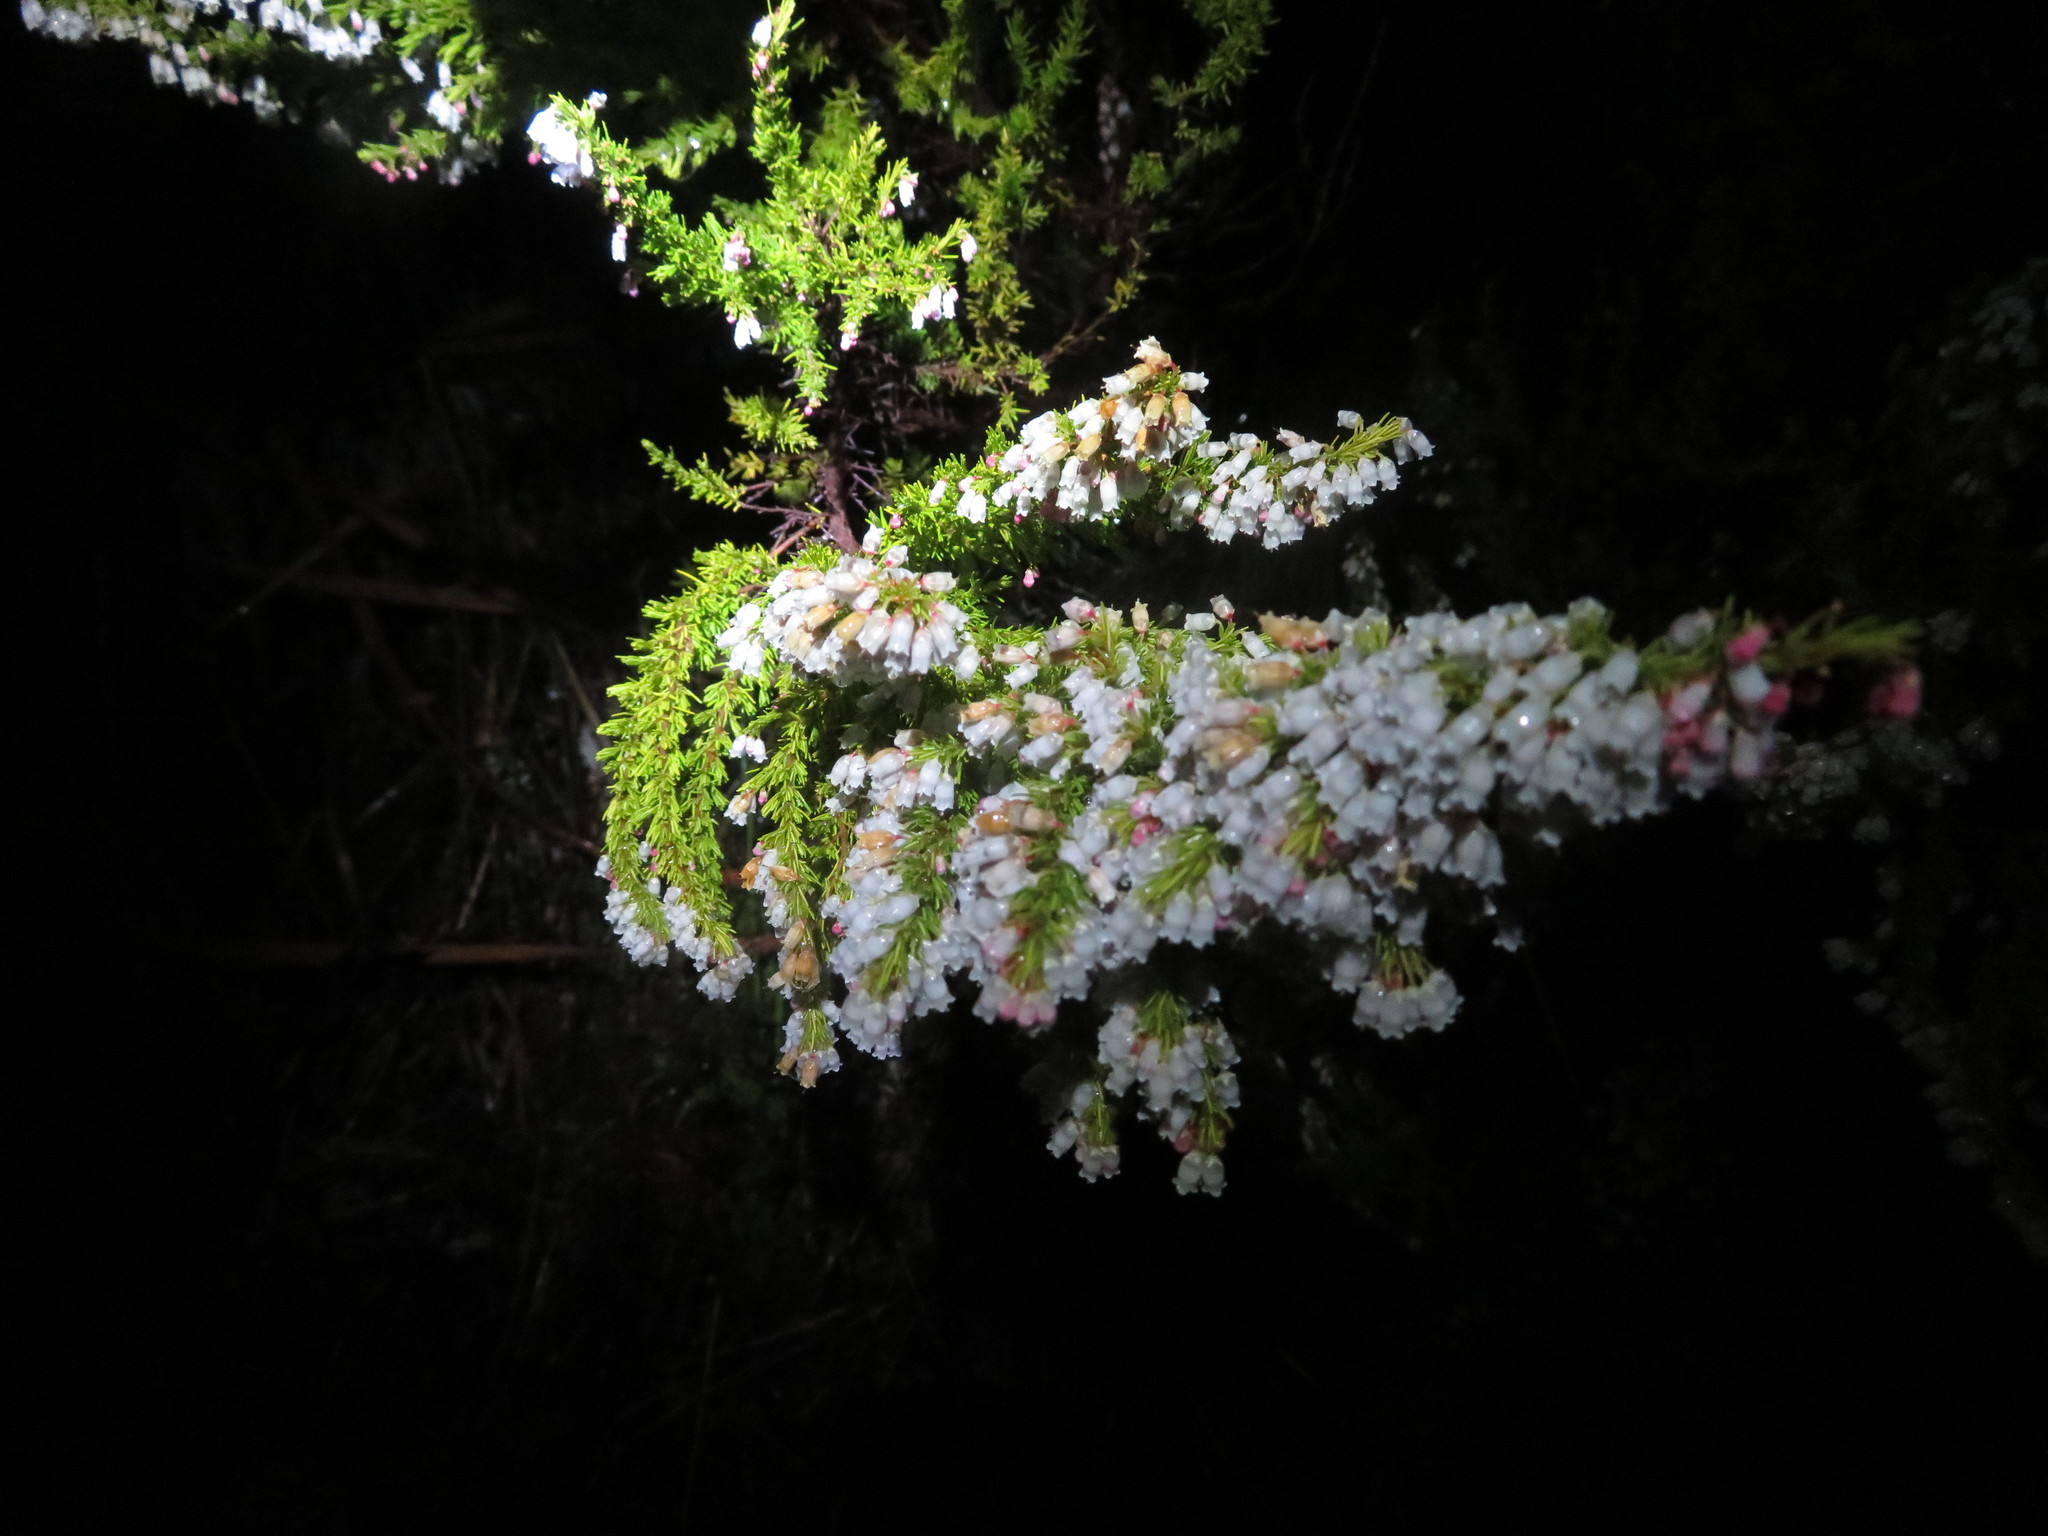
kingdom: Plantae
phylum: Tracheophyta
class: Magnoliopsida
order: Ericales
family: Ericaceae
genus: Erica
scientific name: Erica lusitanica
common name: Spanish heath
